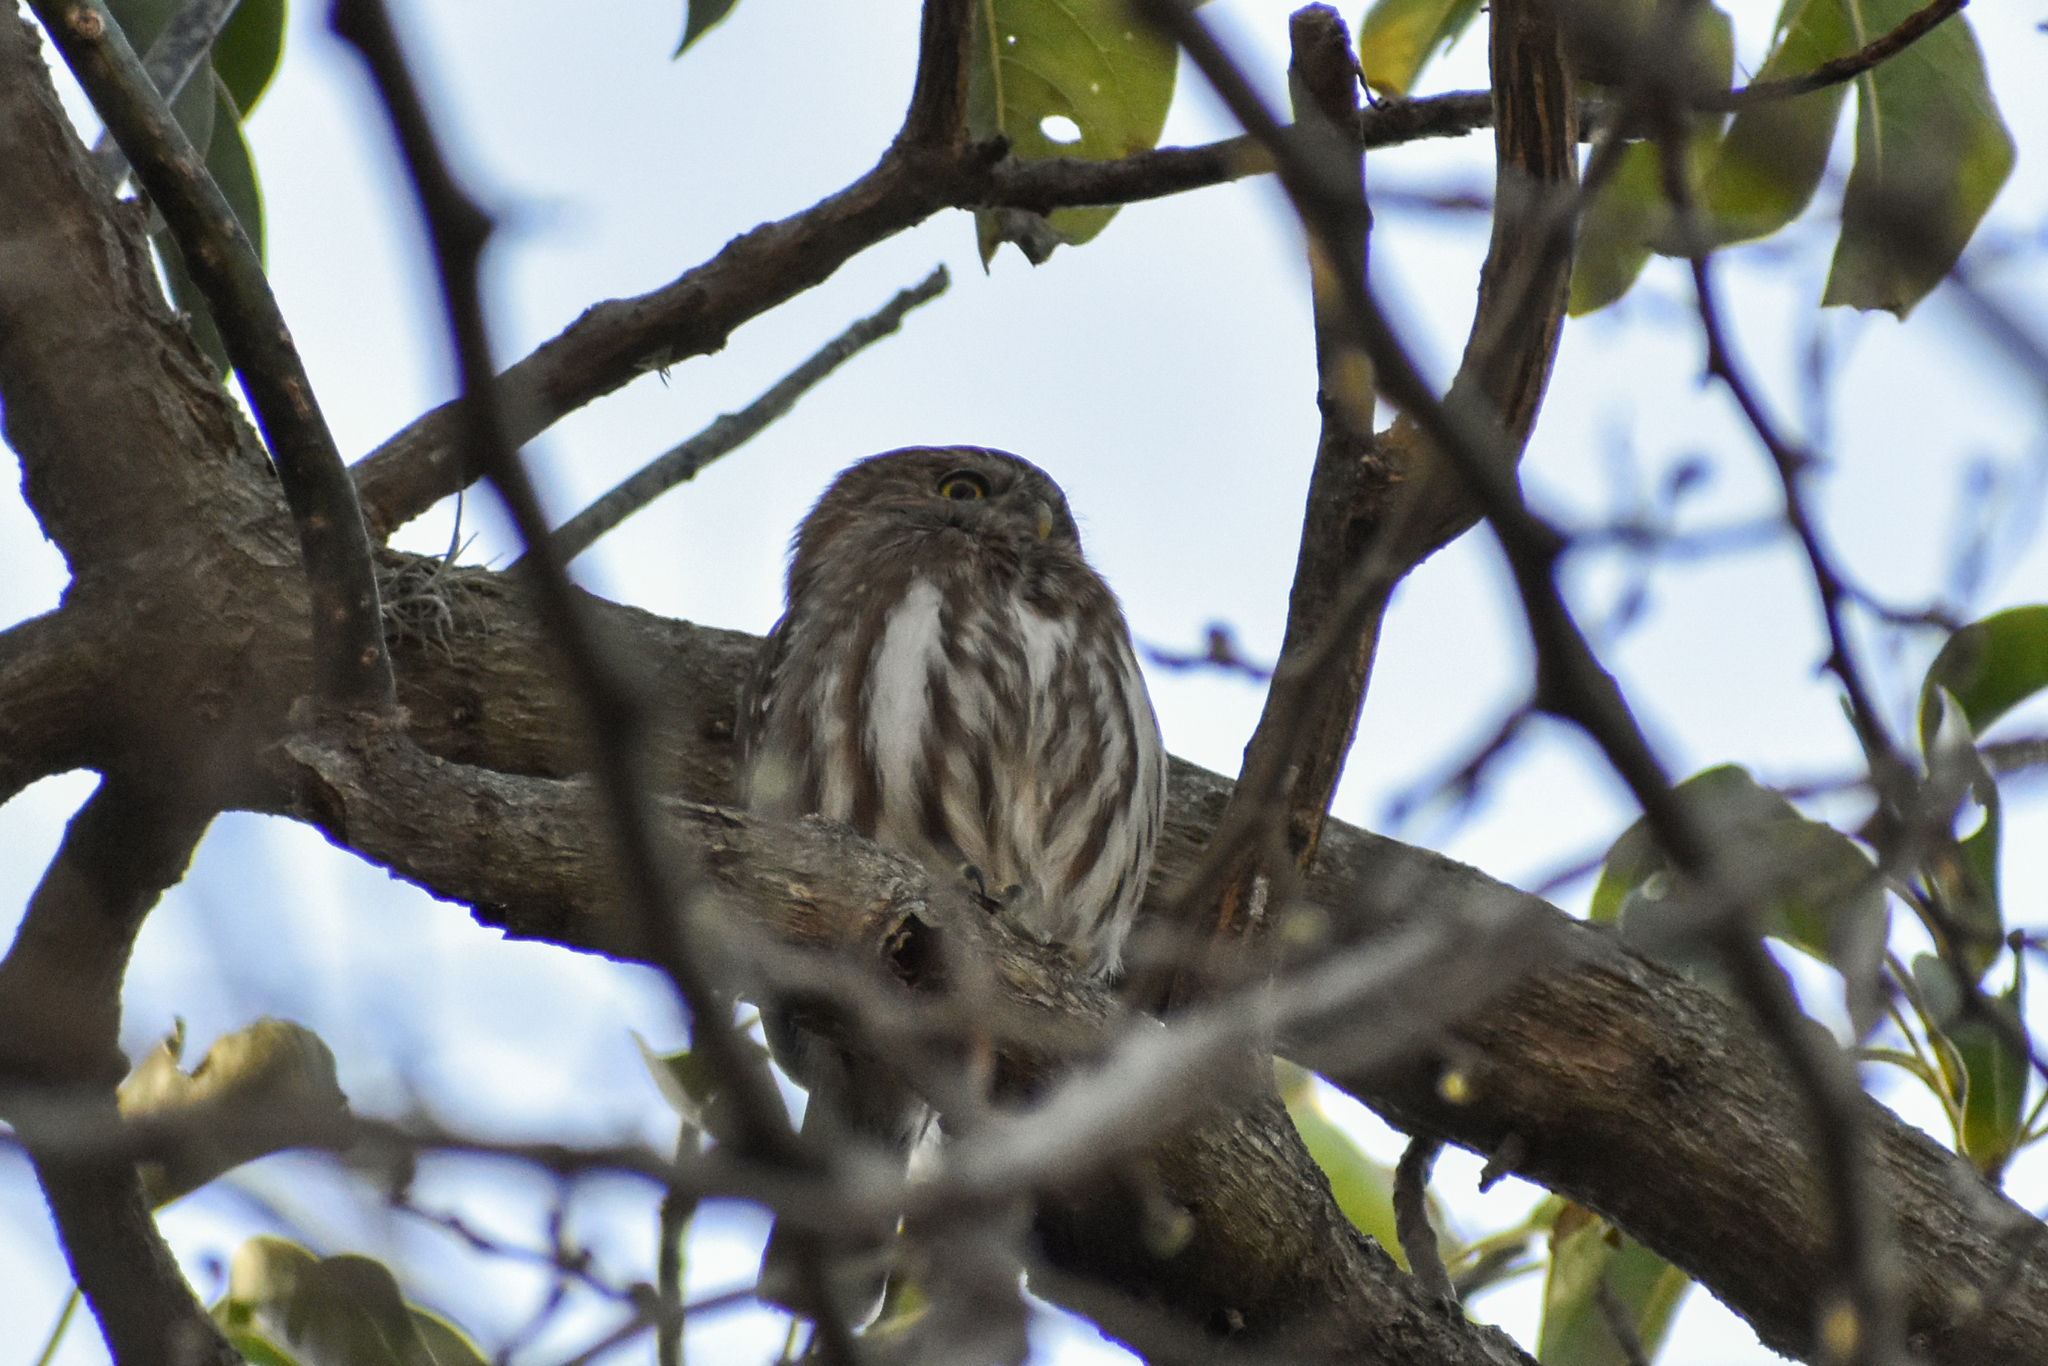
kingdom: Animalia
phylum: Chordata
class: Aves
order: Strigiformes
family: Strigidae
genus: Glaucidium
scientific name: Glaucidium brasilianum
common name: Ferruginous pygmy-owl
